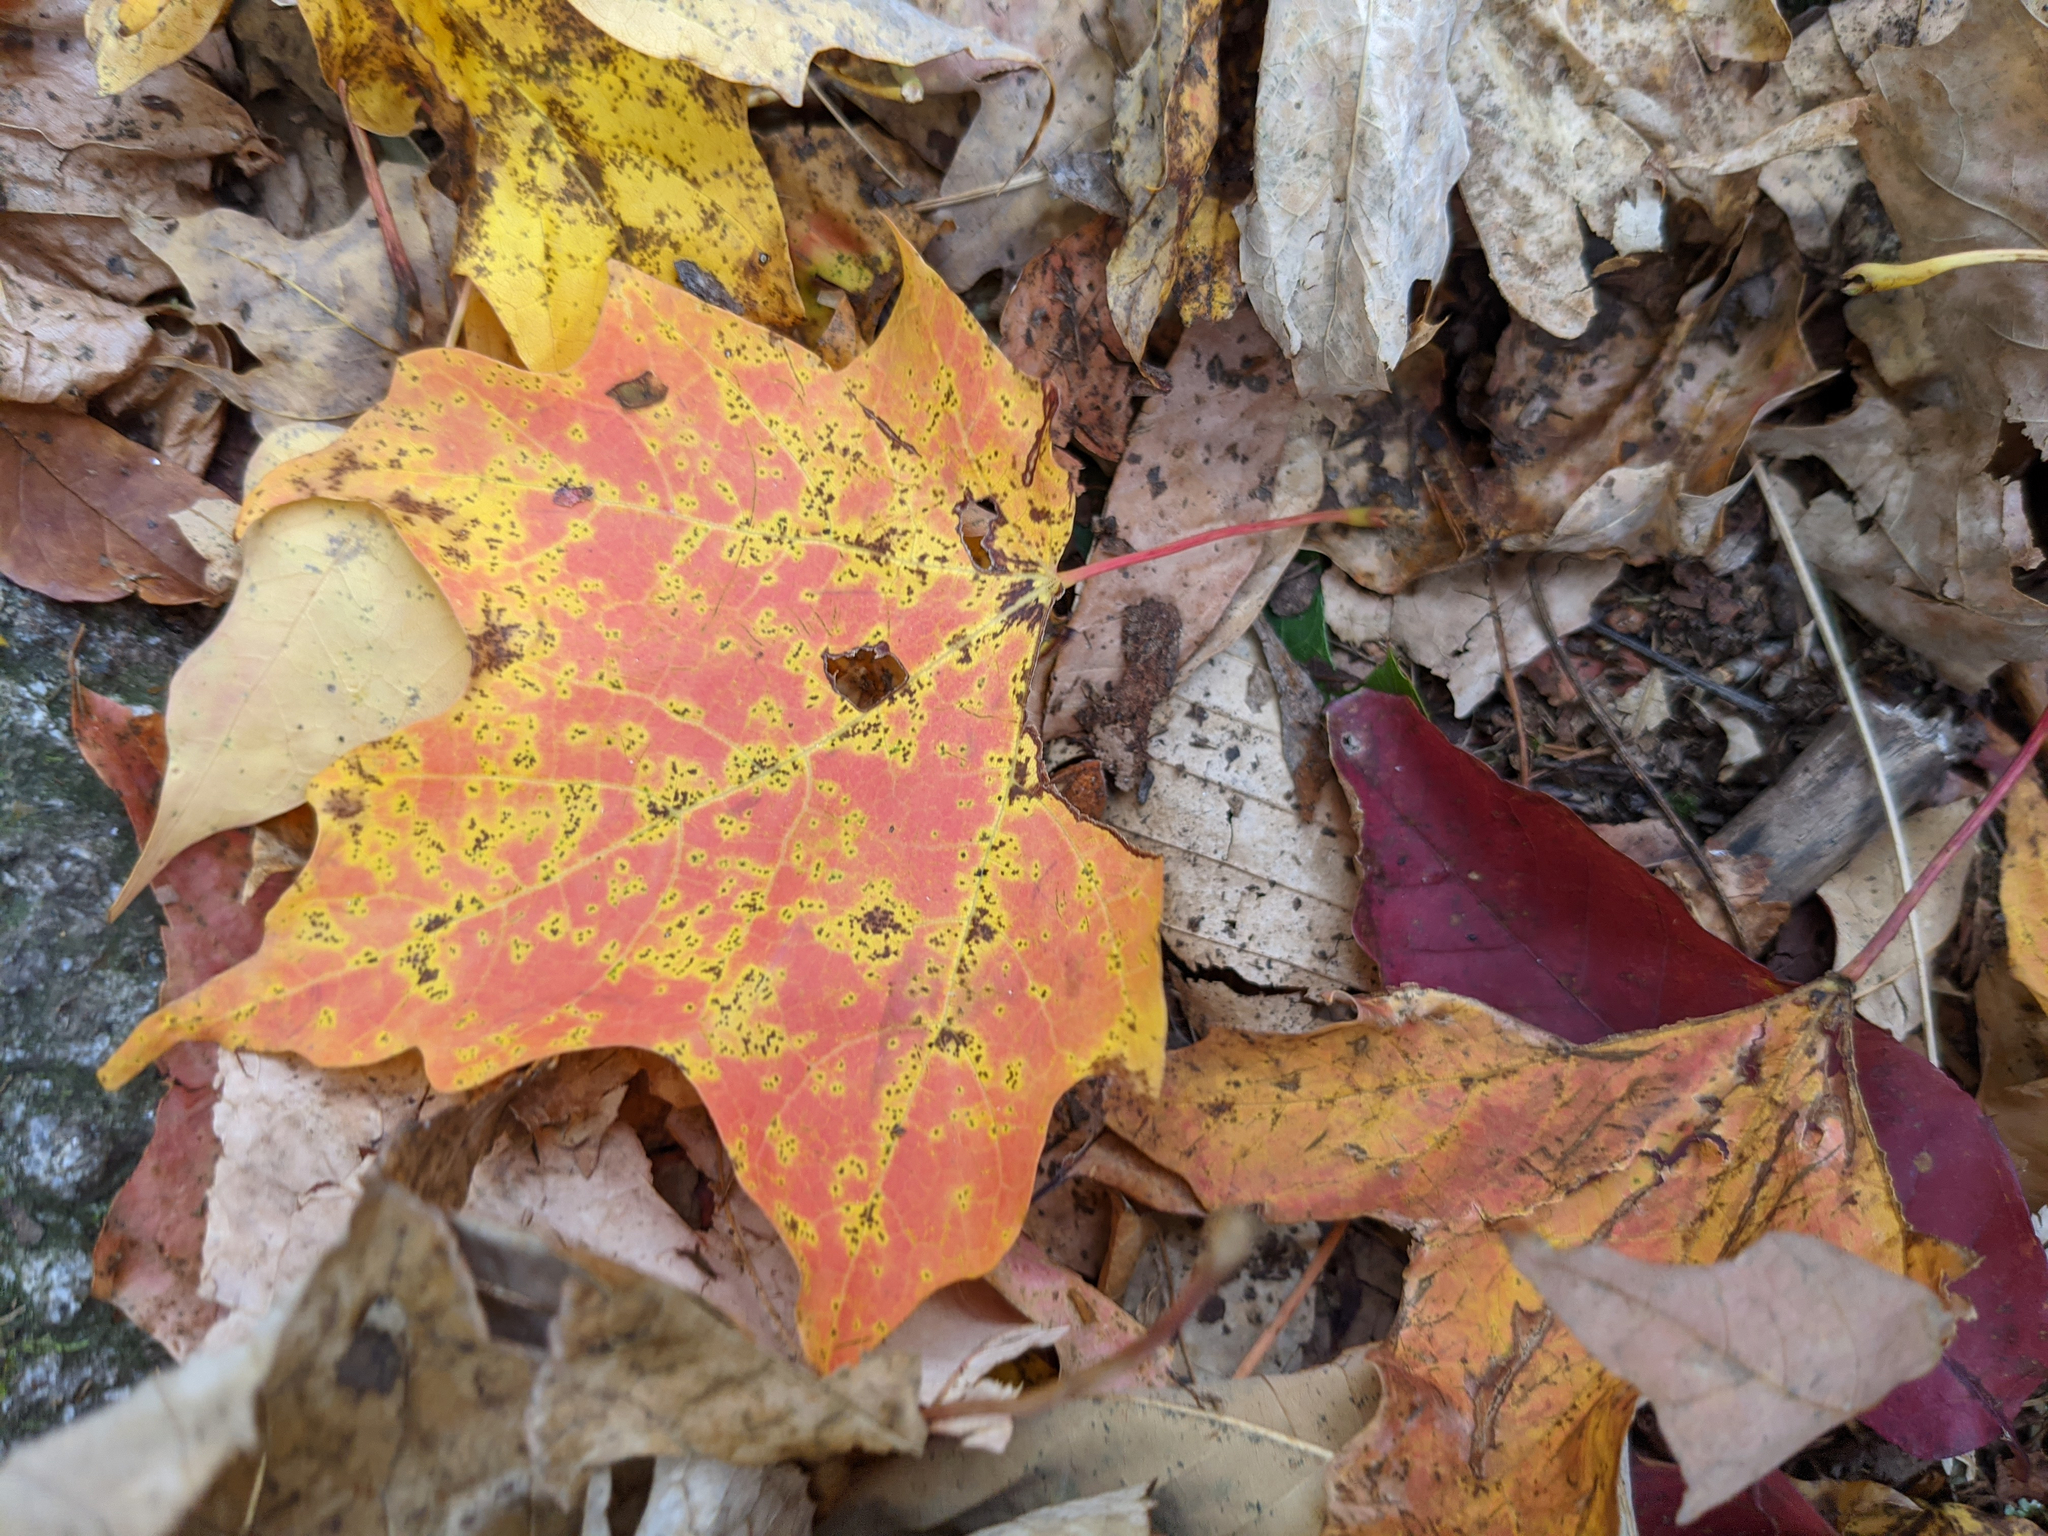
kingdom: Plantae
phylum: Tracheophyta
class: Magnoliopsida
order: Sapindales
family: Sapindaceae
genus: Acer
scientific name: Acer saccharum
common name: Sugar maple
